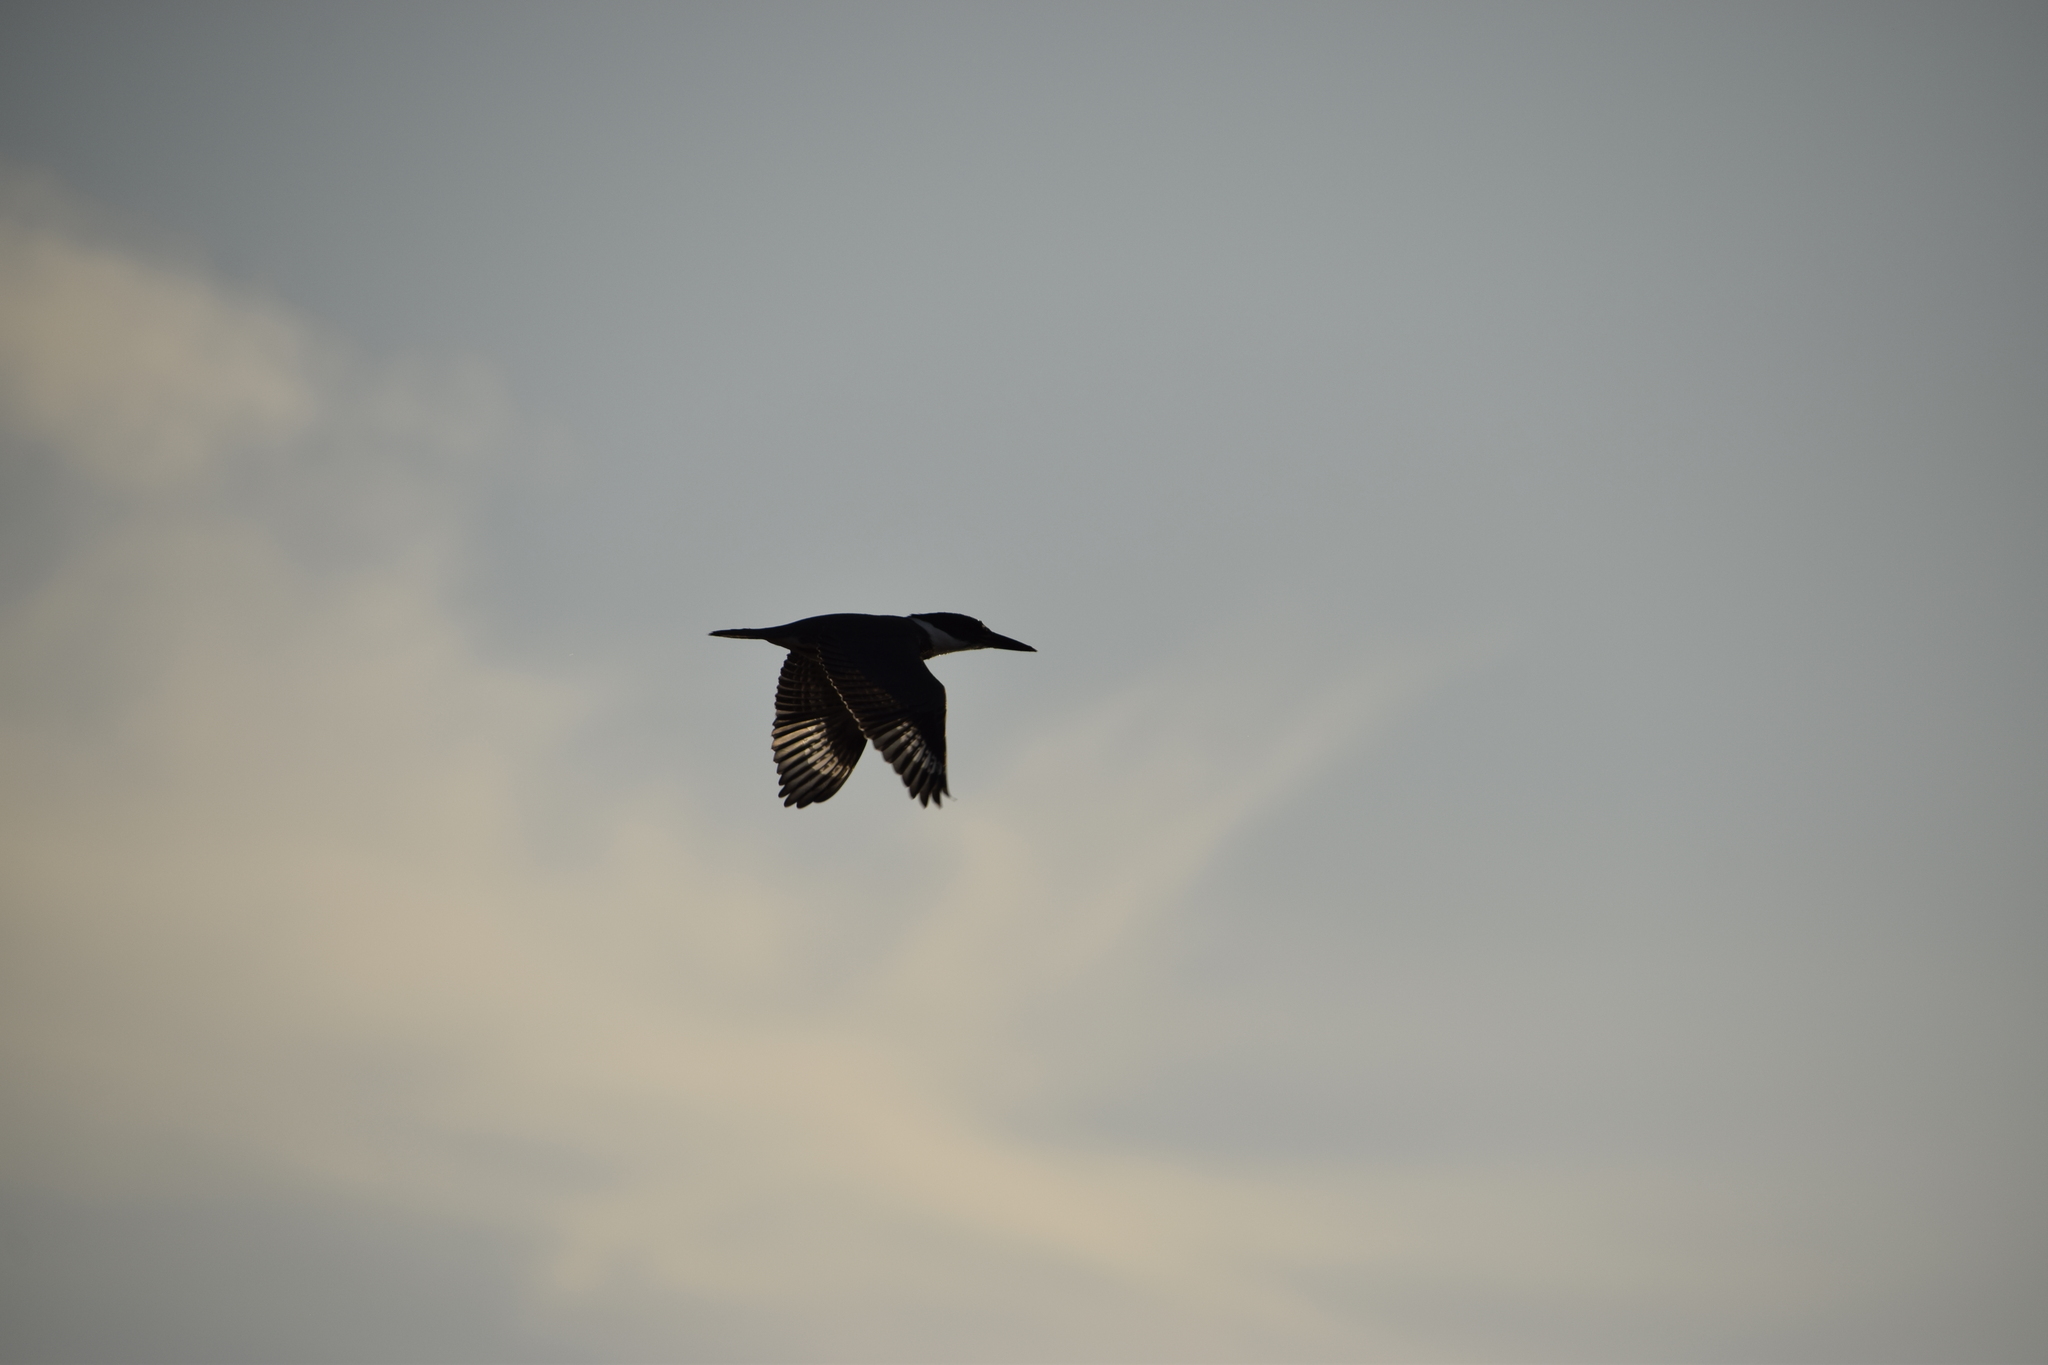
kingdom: Animalia
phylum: Chordata
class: Aves
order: Coraciiformes
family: Alcedinidae
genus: Megaceryle
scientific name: Megaceryle alcyon
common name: Belted kingfisher
